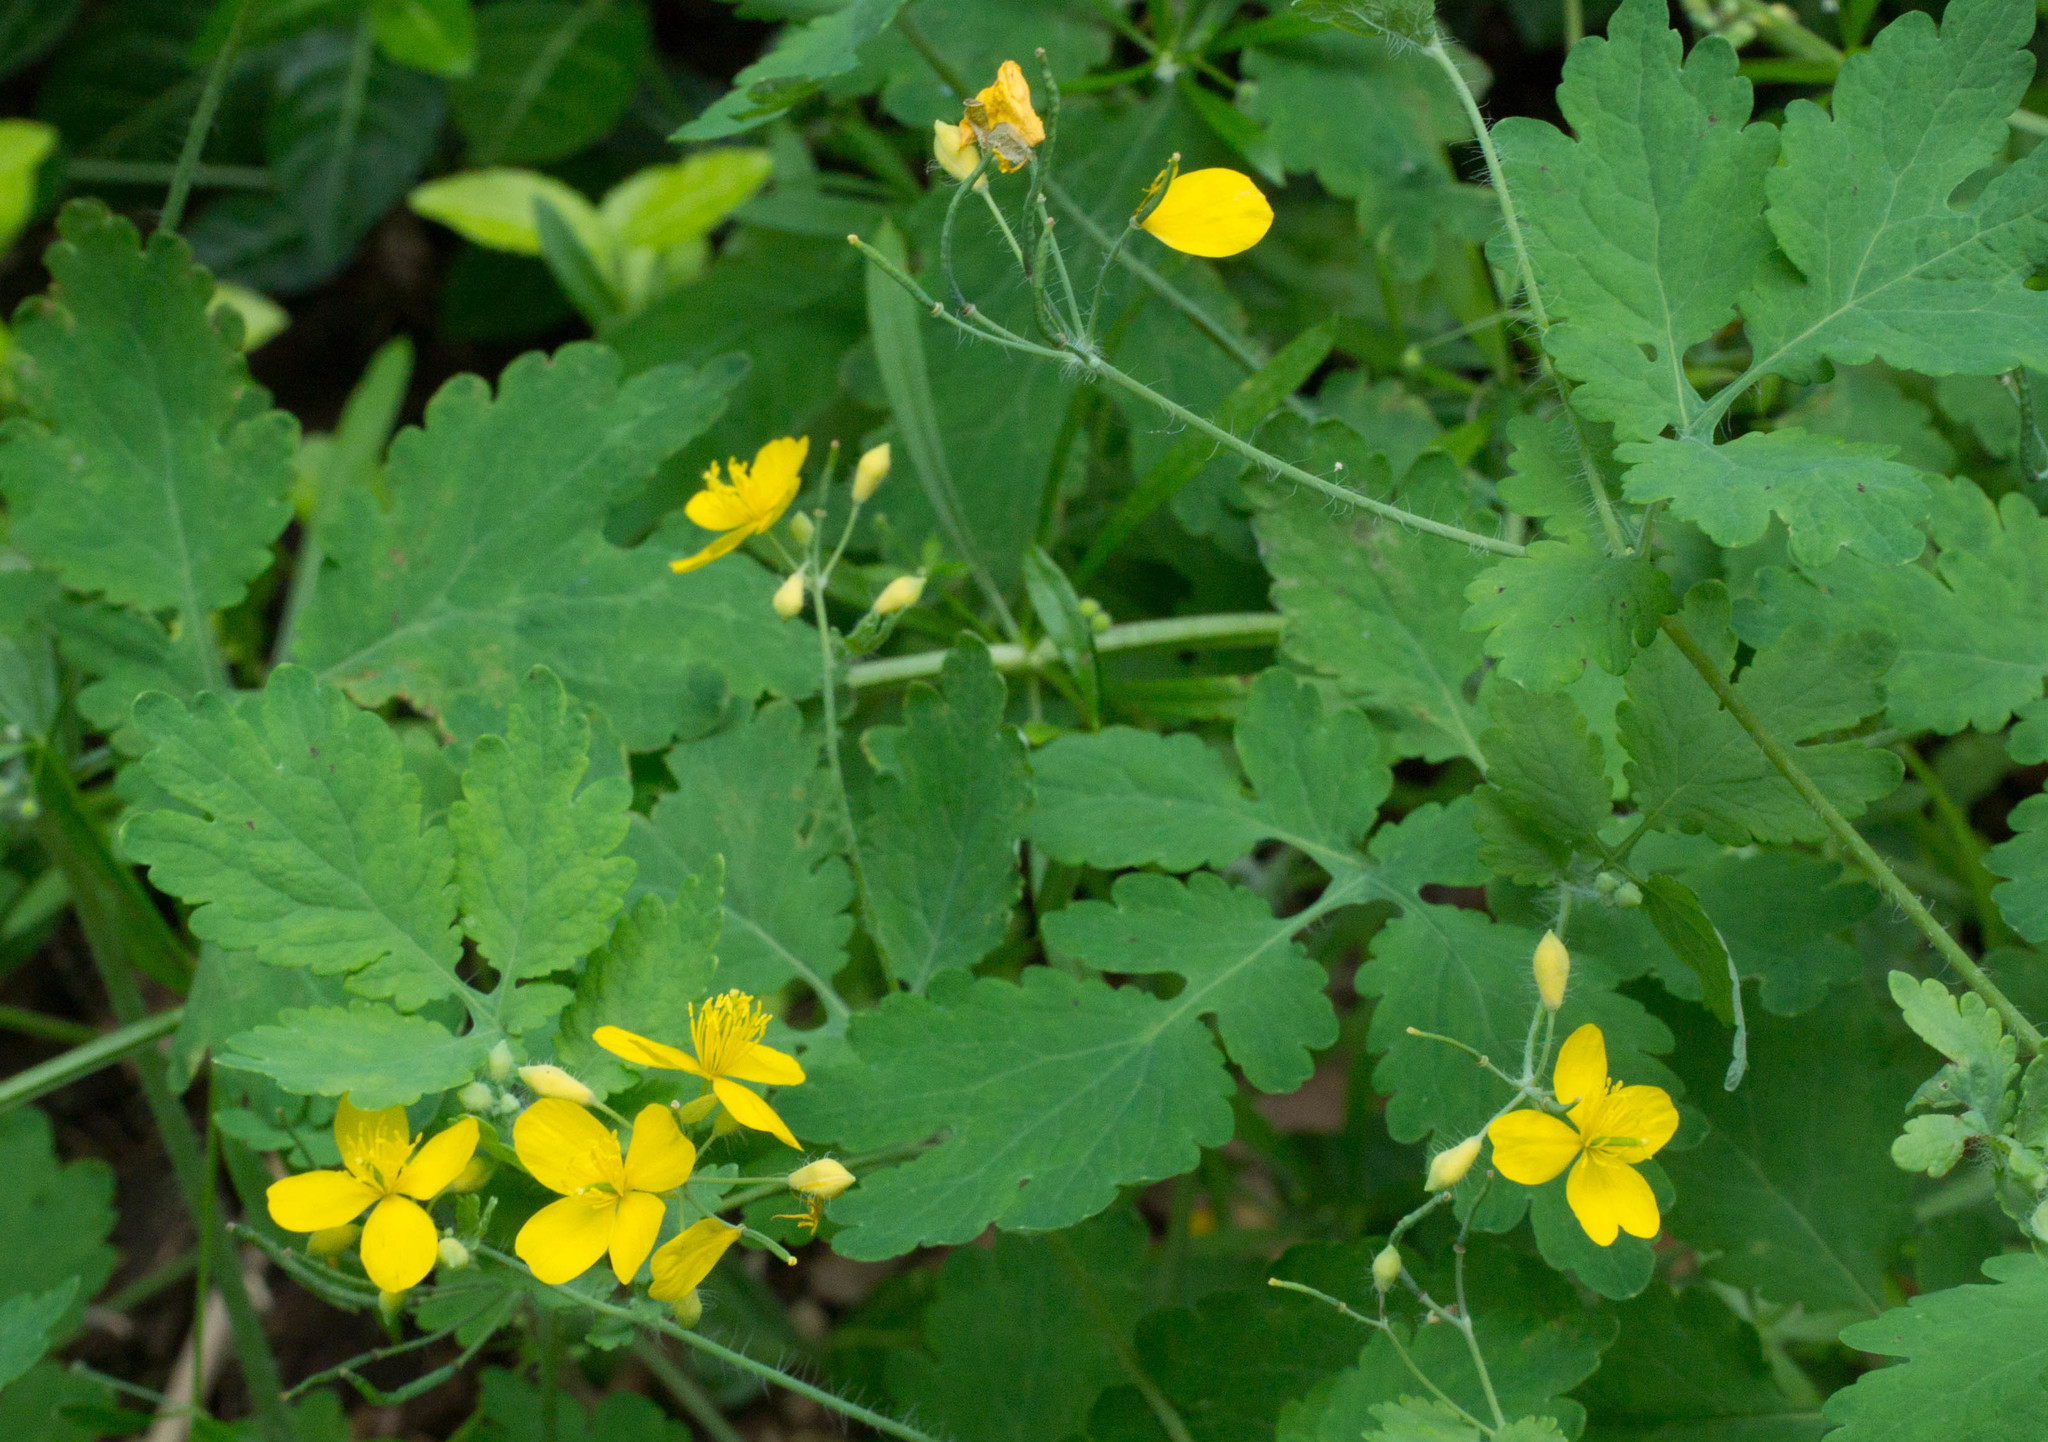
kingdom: Plantae
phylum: Tracheophyta
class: Magnoliopsida
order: Ranunculales
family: Papaveraceae
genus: Chelidonium
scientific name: Chelidonium majus
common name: Greater celandine
